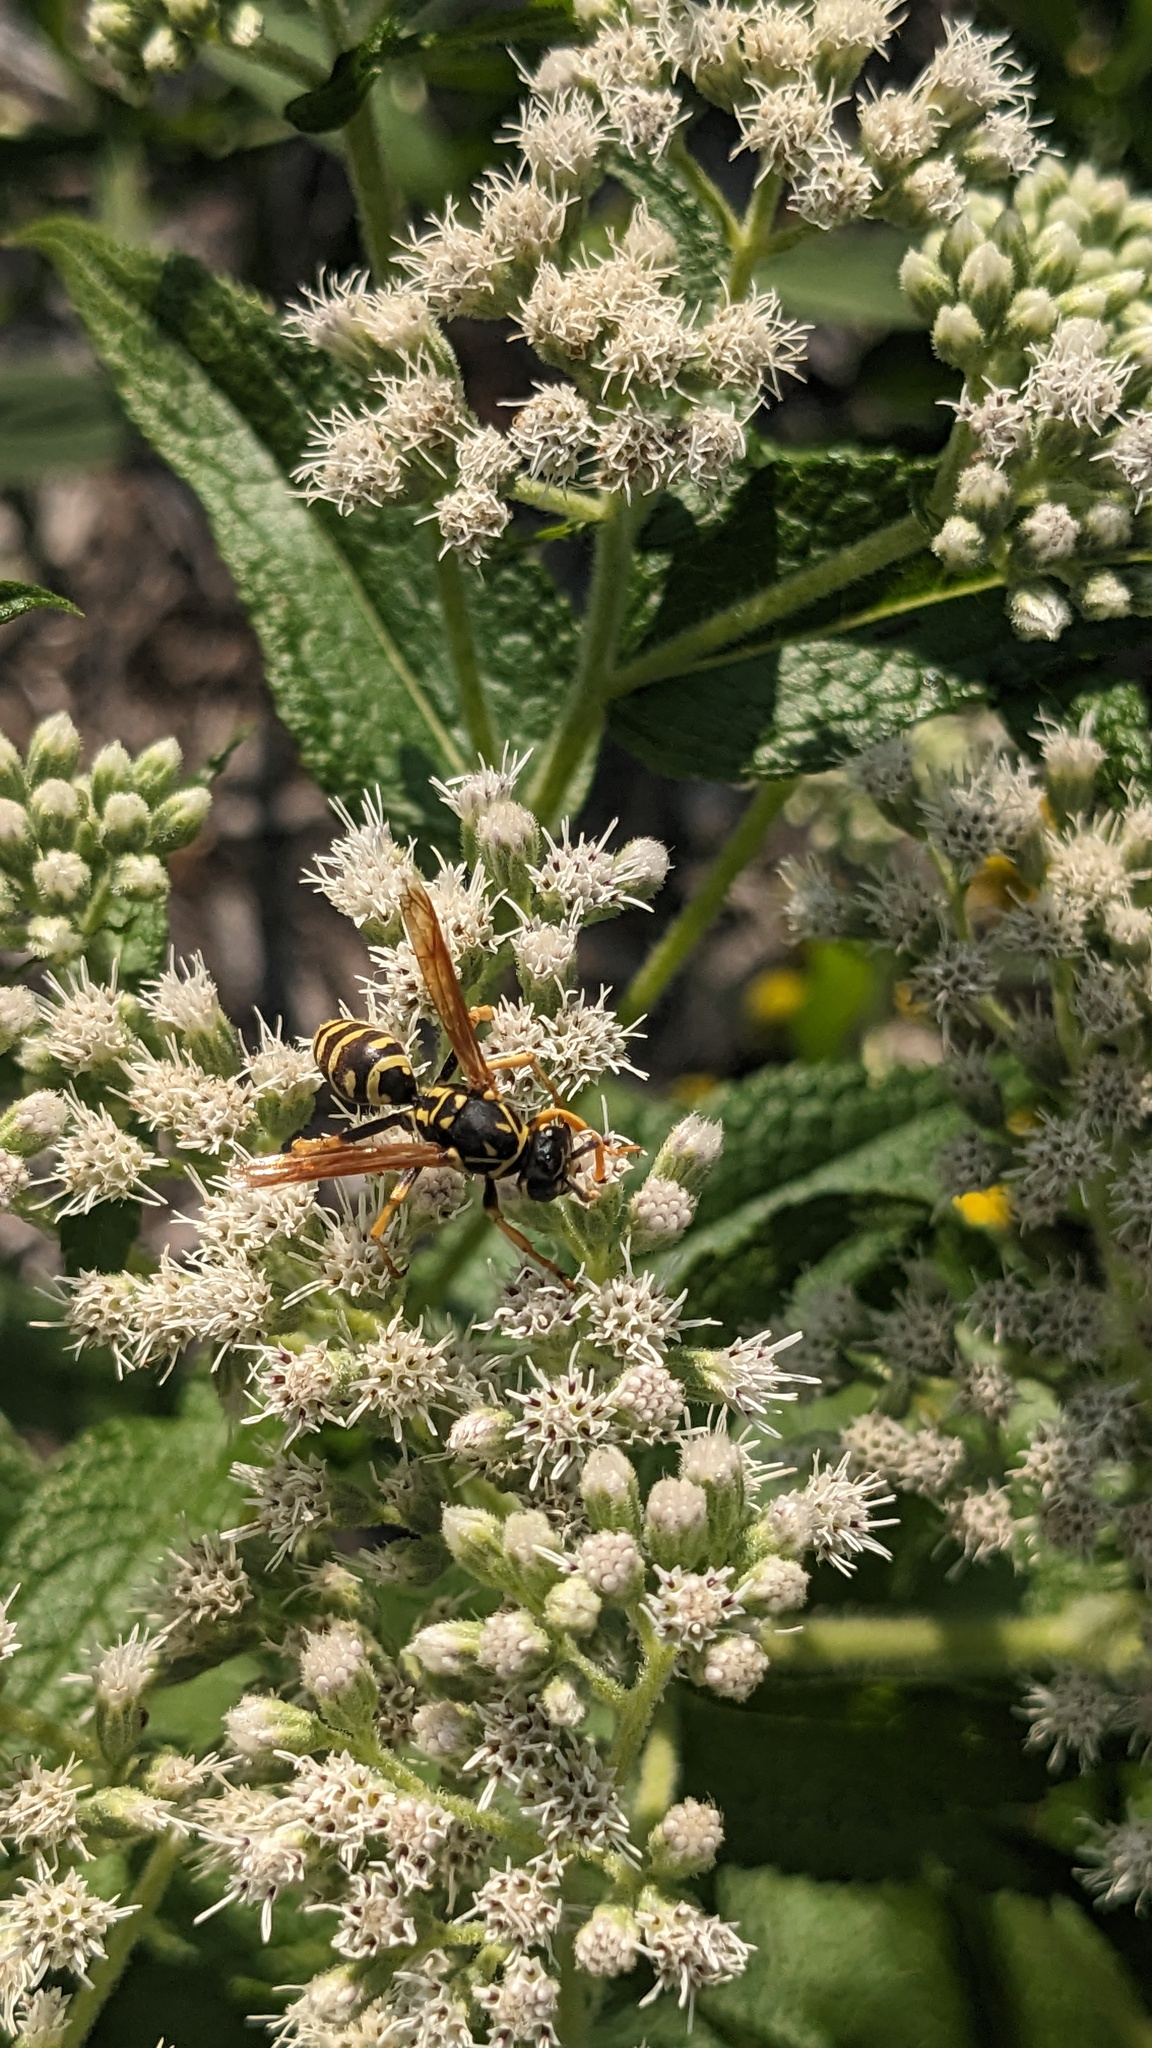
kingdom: Animalia
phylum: Arthropoda
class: Insecta
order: Hymenoptera
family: Eumenidae
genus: Polistes
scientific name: Polistes dominula
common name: Paper wasp
